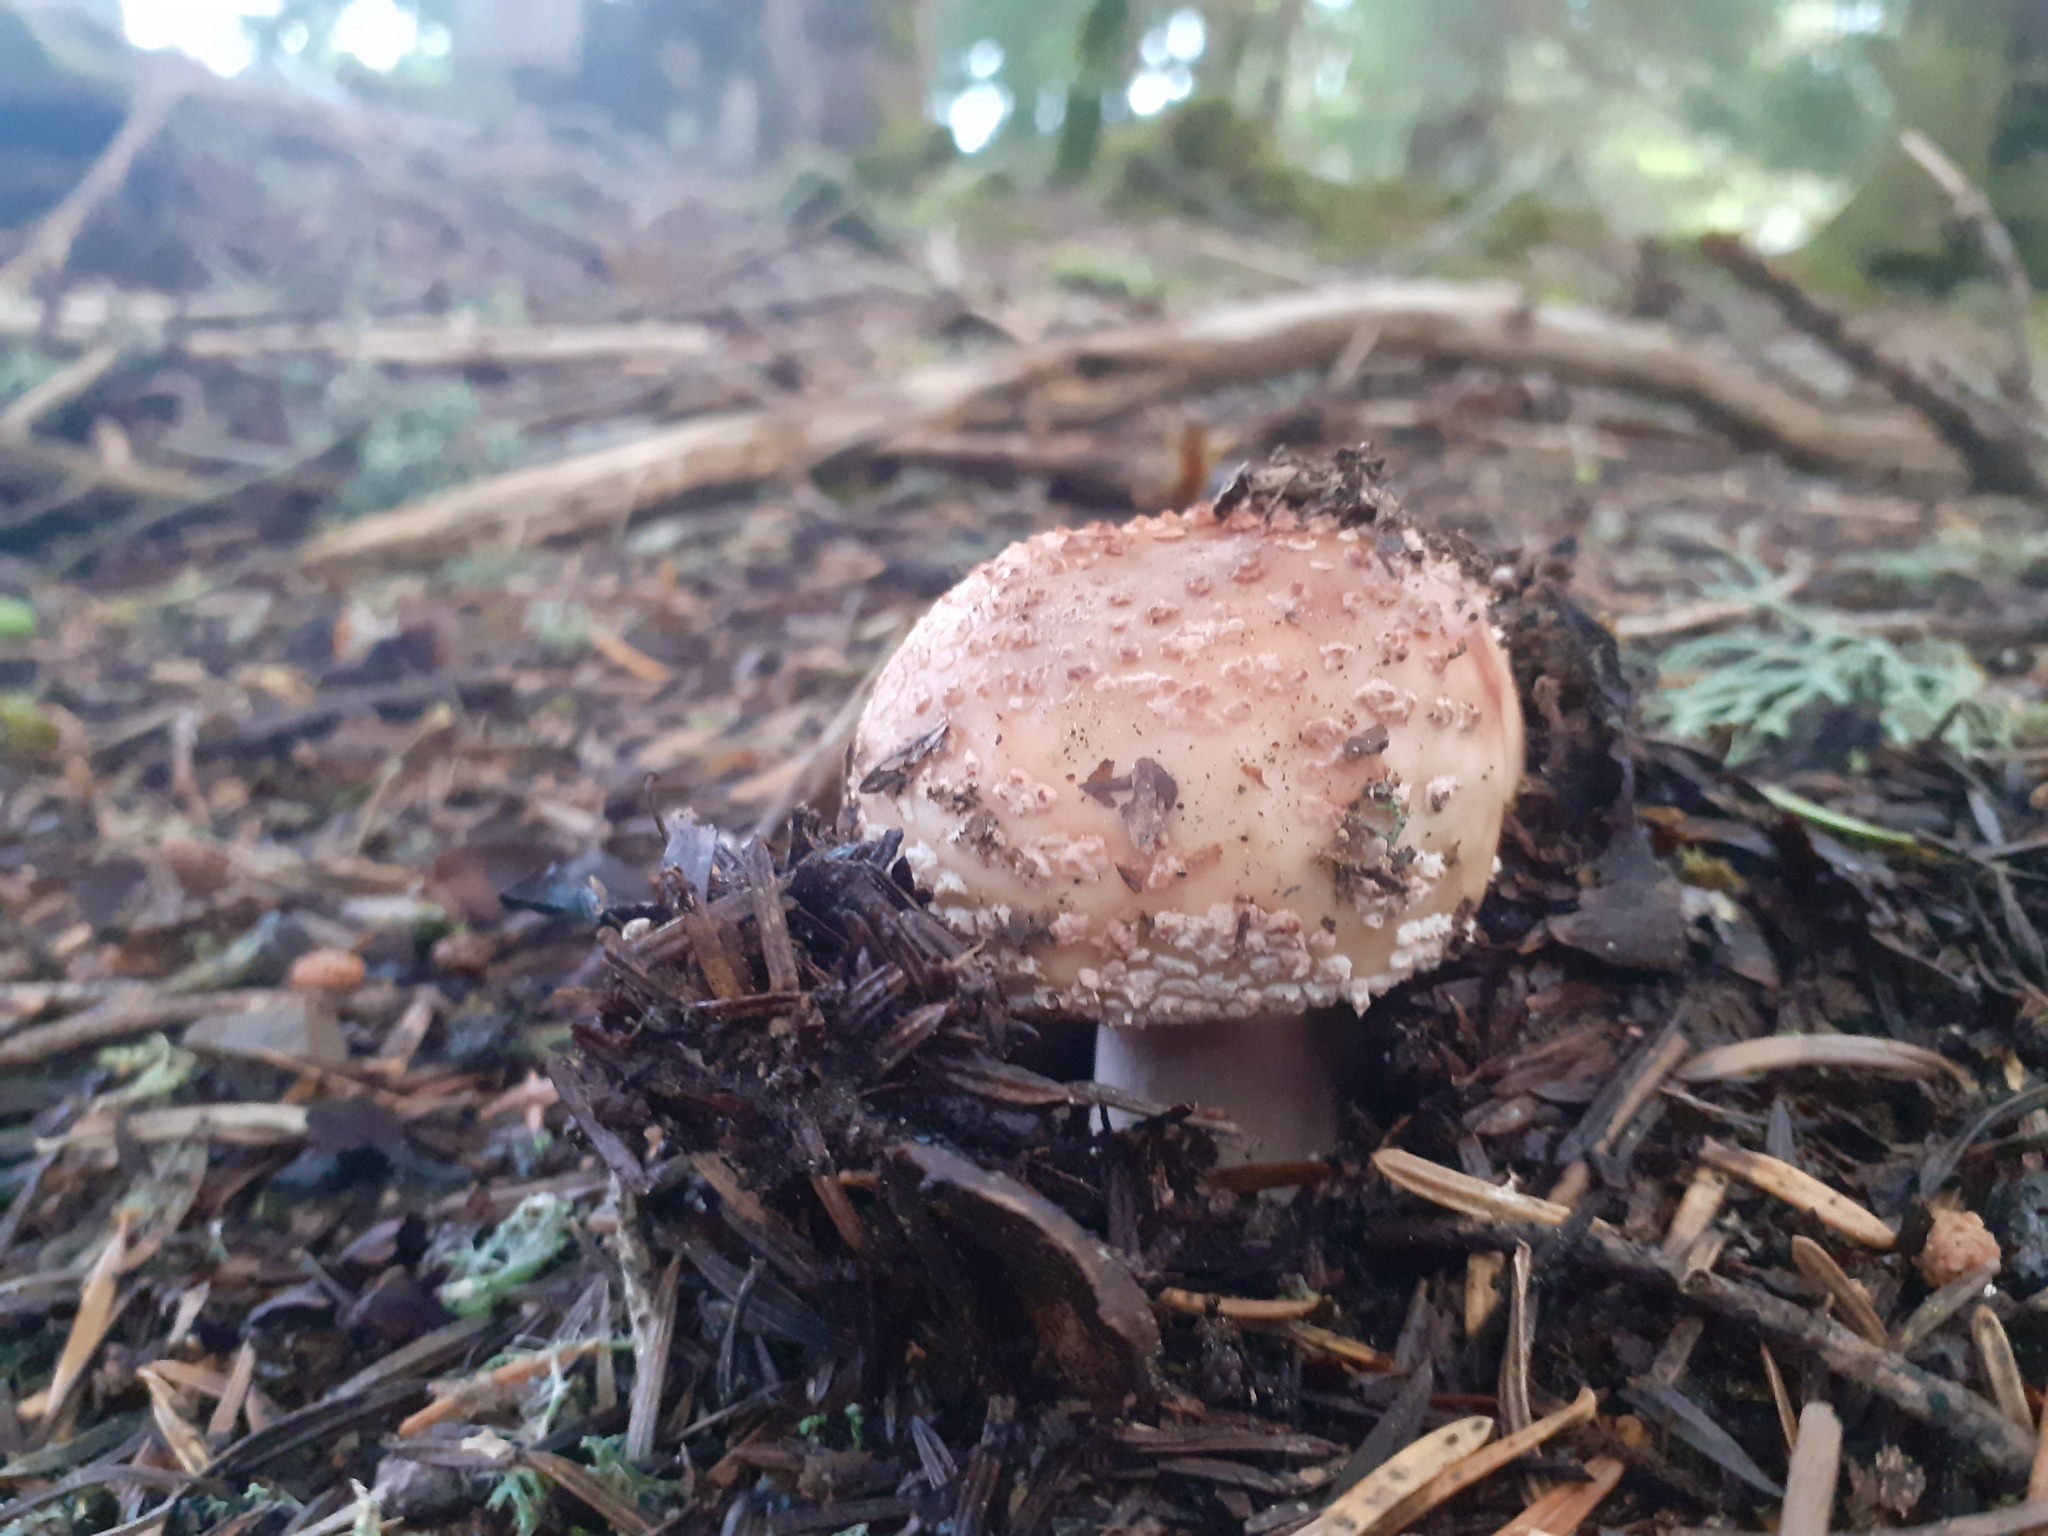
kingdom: Fungi
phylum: Basidiomycota
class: Agaricomycetes
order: Agaricales
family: Amanitaceae
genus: Amanita
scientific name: Amanita rubescens
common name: Blusher
